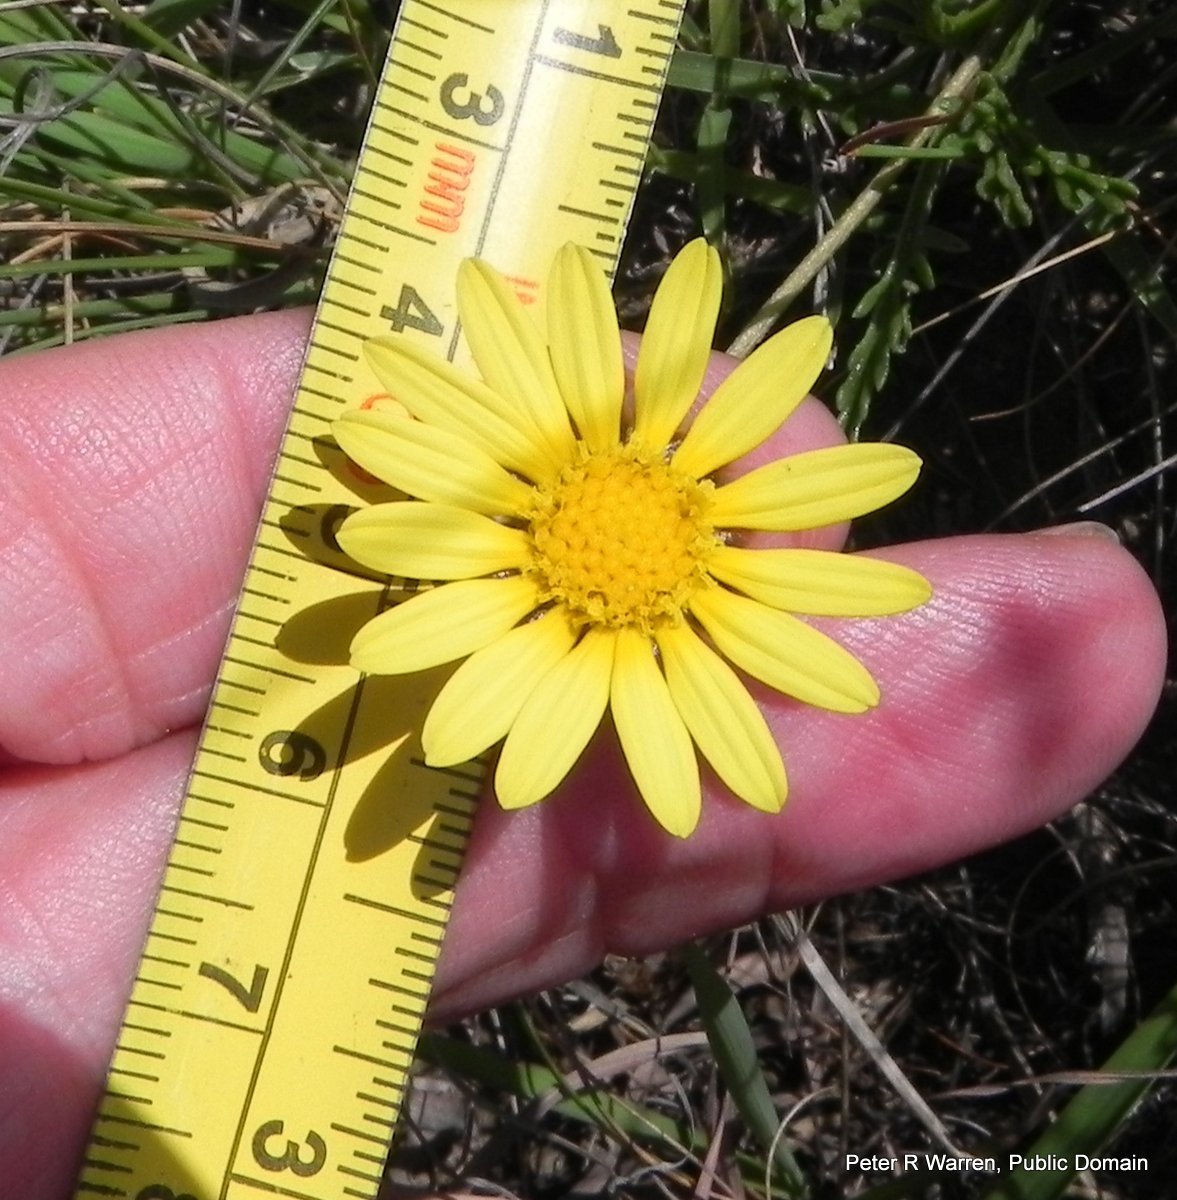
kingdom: Plantae
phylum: Tracheophyta
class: Magnoliopsida
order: Asterales
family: Asteraceae
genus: Ursinia
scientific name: Ursinia montana
